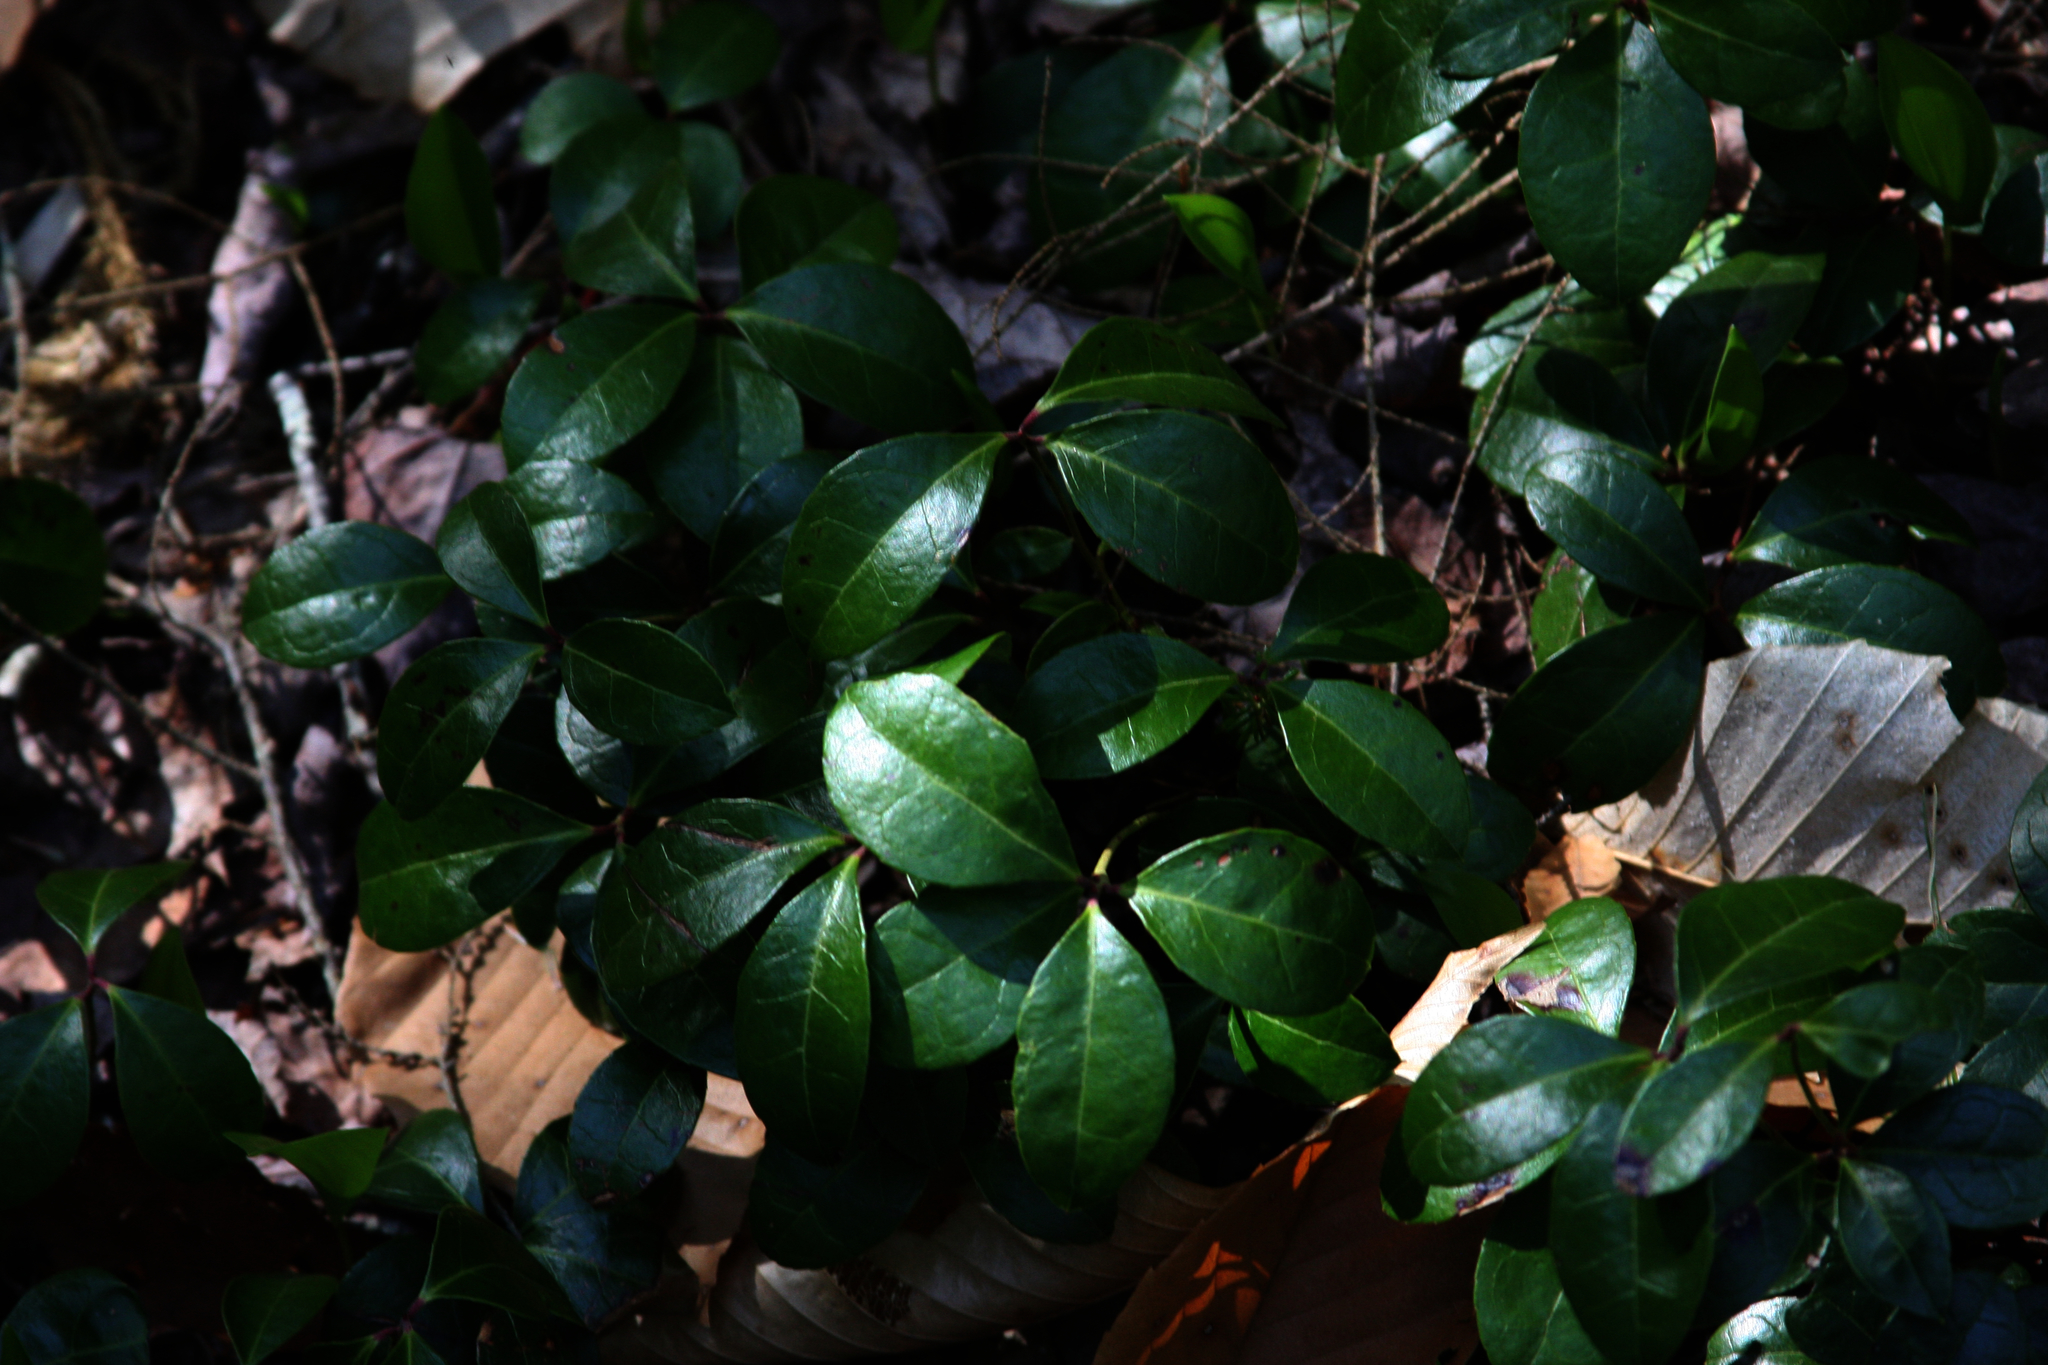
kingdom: Plantae
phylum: Tracheophyta
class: Magnoliopsida
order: Ericales
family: Ericaceae
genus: Gaultheria
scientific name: Gaultheria procumbens
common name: Checkerberry
